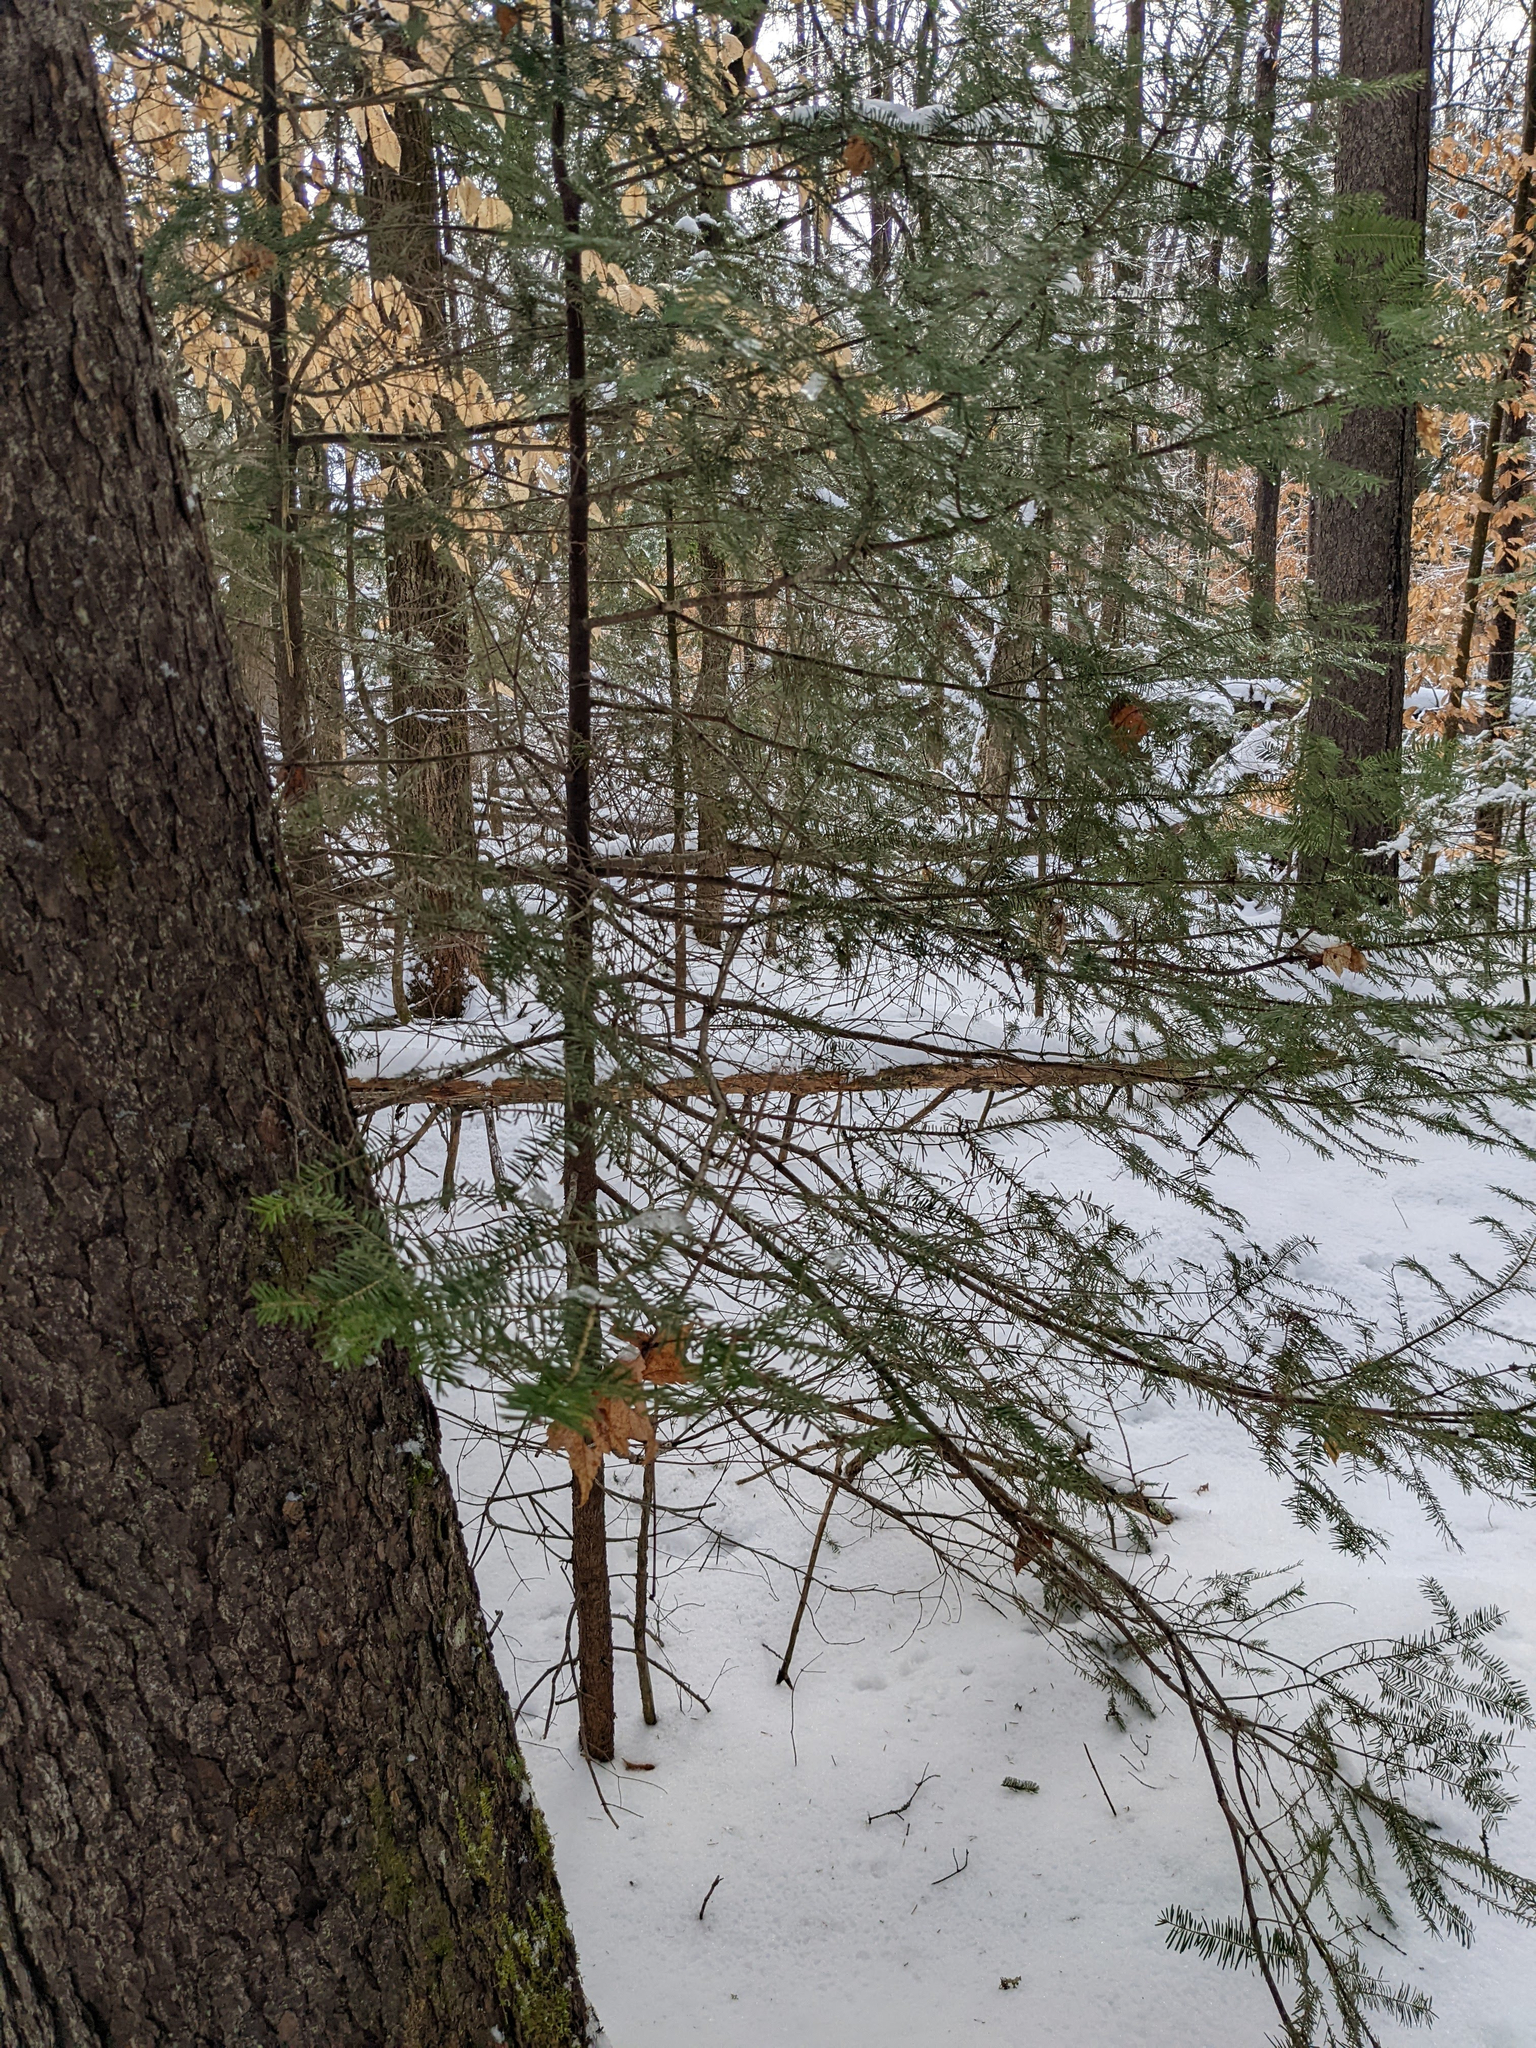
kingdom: Plantae
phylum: Tracheophyta
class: Pinopsida
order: Pinales
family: Pinaceae
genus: Abies
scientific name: Abies balsamea
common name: Balsam fir
